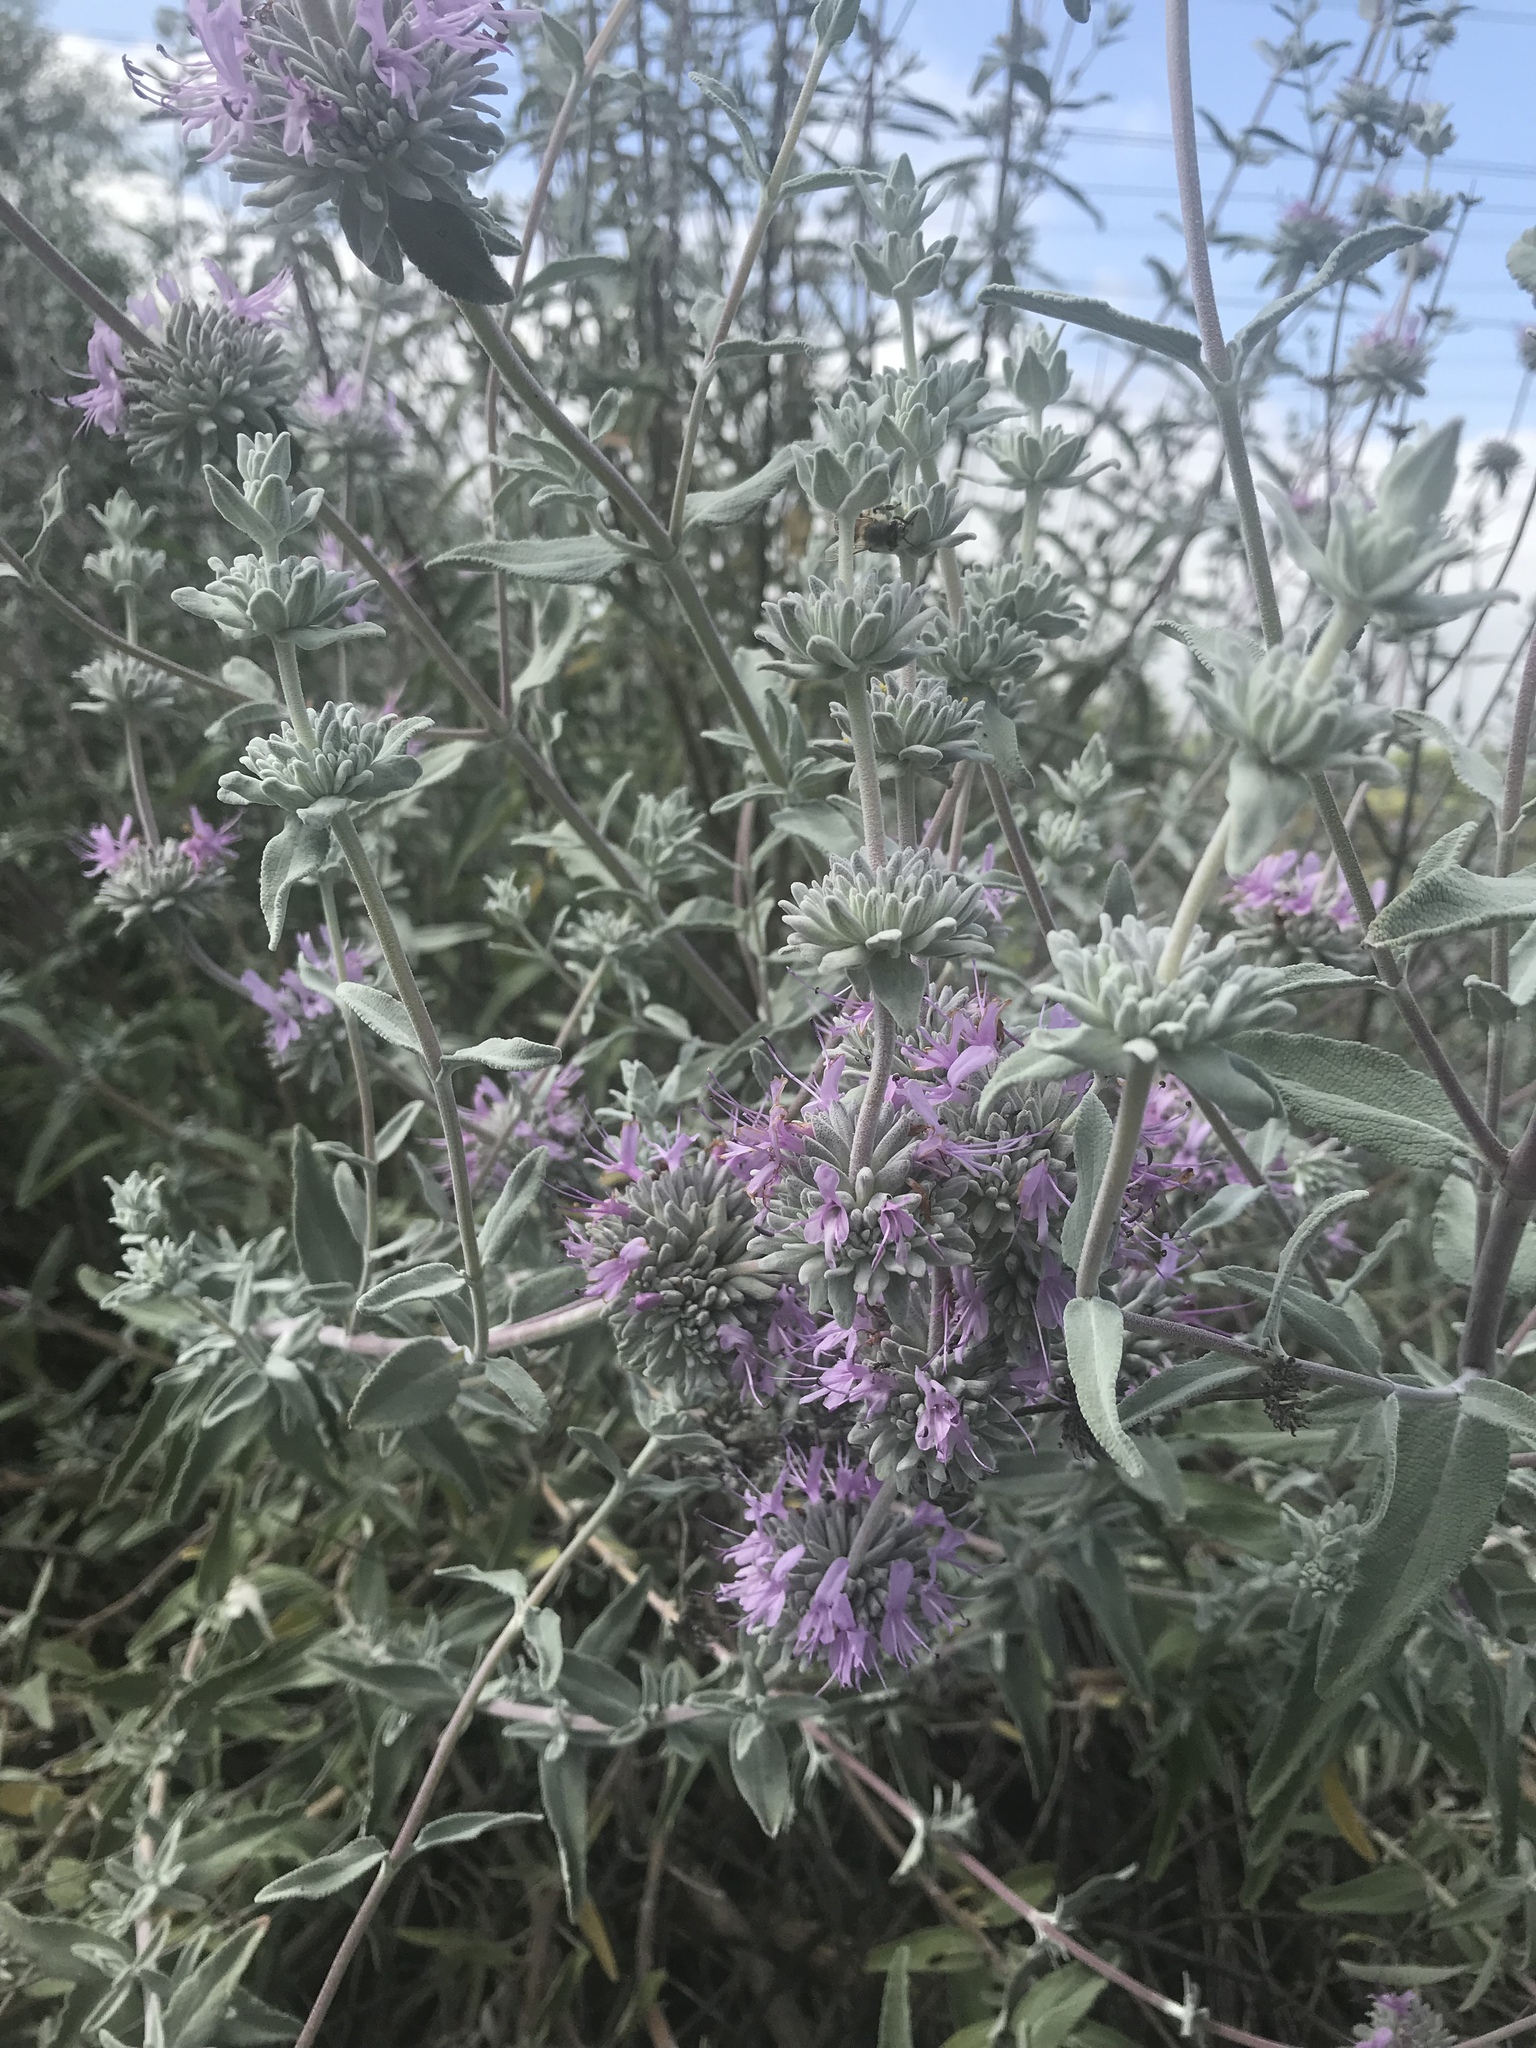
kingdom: Plantae
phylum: Tracheophyta
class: Magnoliopsida
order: Lamiales
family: Lamiaceae
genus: Salvia
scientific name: Salvia leucophylla
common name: Purple sage
